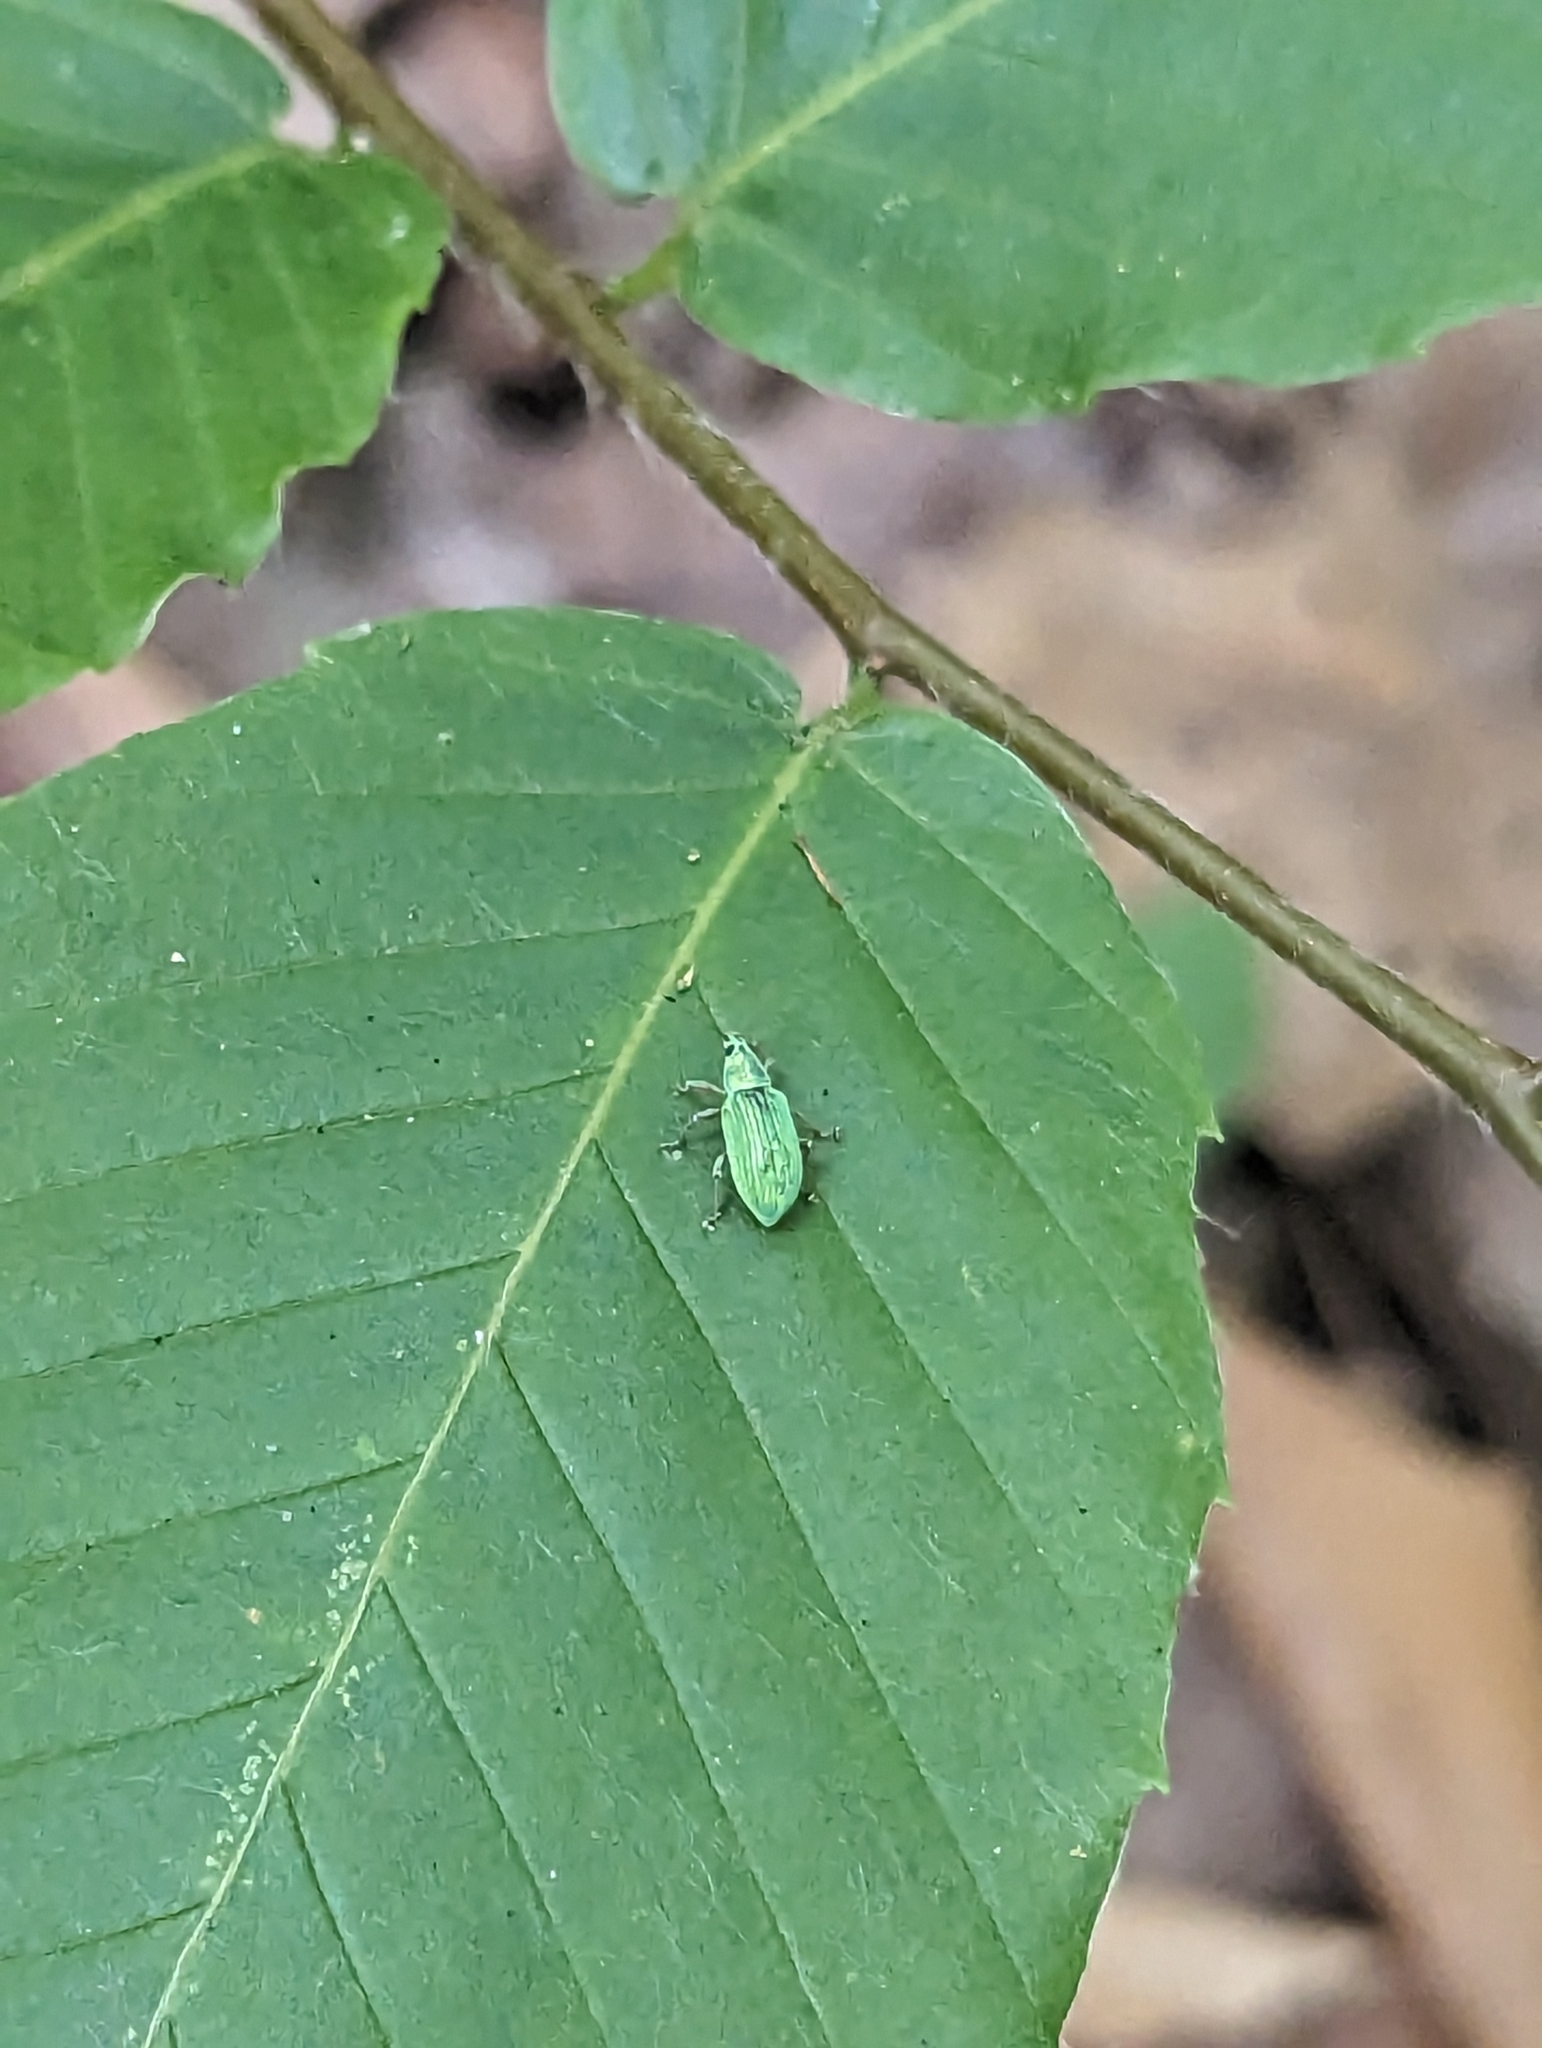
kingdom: Animalia
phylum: Arthropoda
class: Insecta
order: Coleoptera
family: Curculionidae
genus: Polydrusus
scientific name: Polydrusus formosus
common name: Weevil
